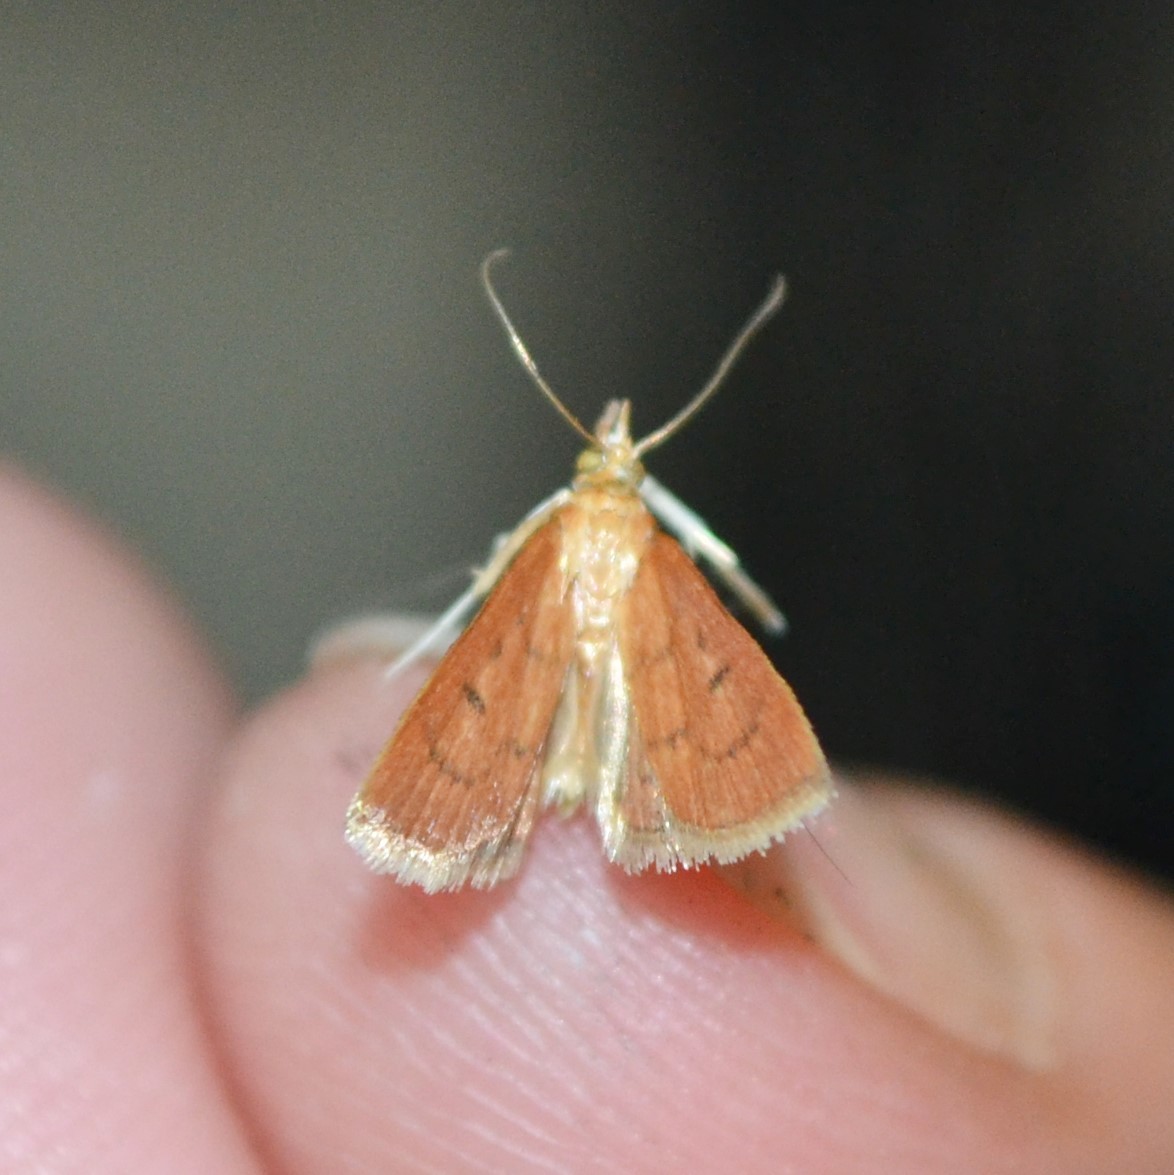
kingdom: Animalia
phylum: Arthropoda
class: Insecta
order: Lepidoptera
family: Crambidae
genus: Oenobotys
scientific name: Oenobotys vinotinctalis
